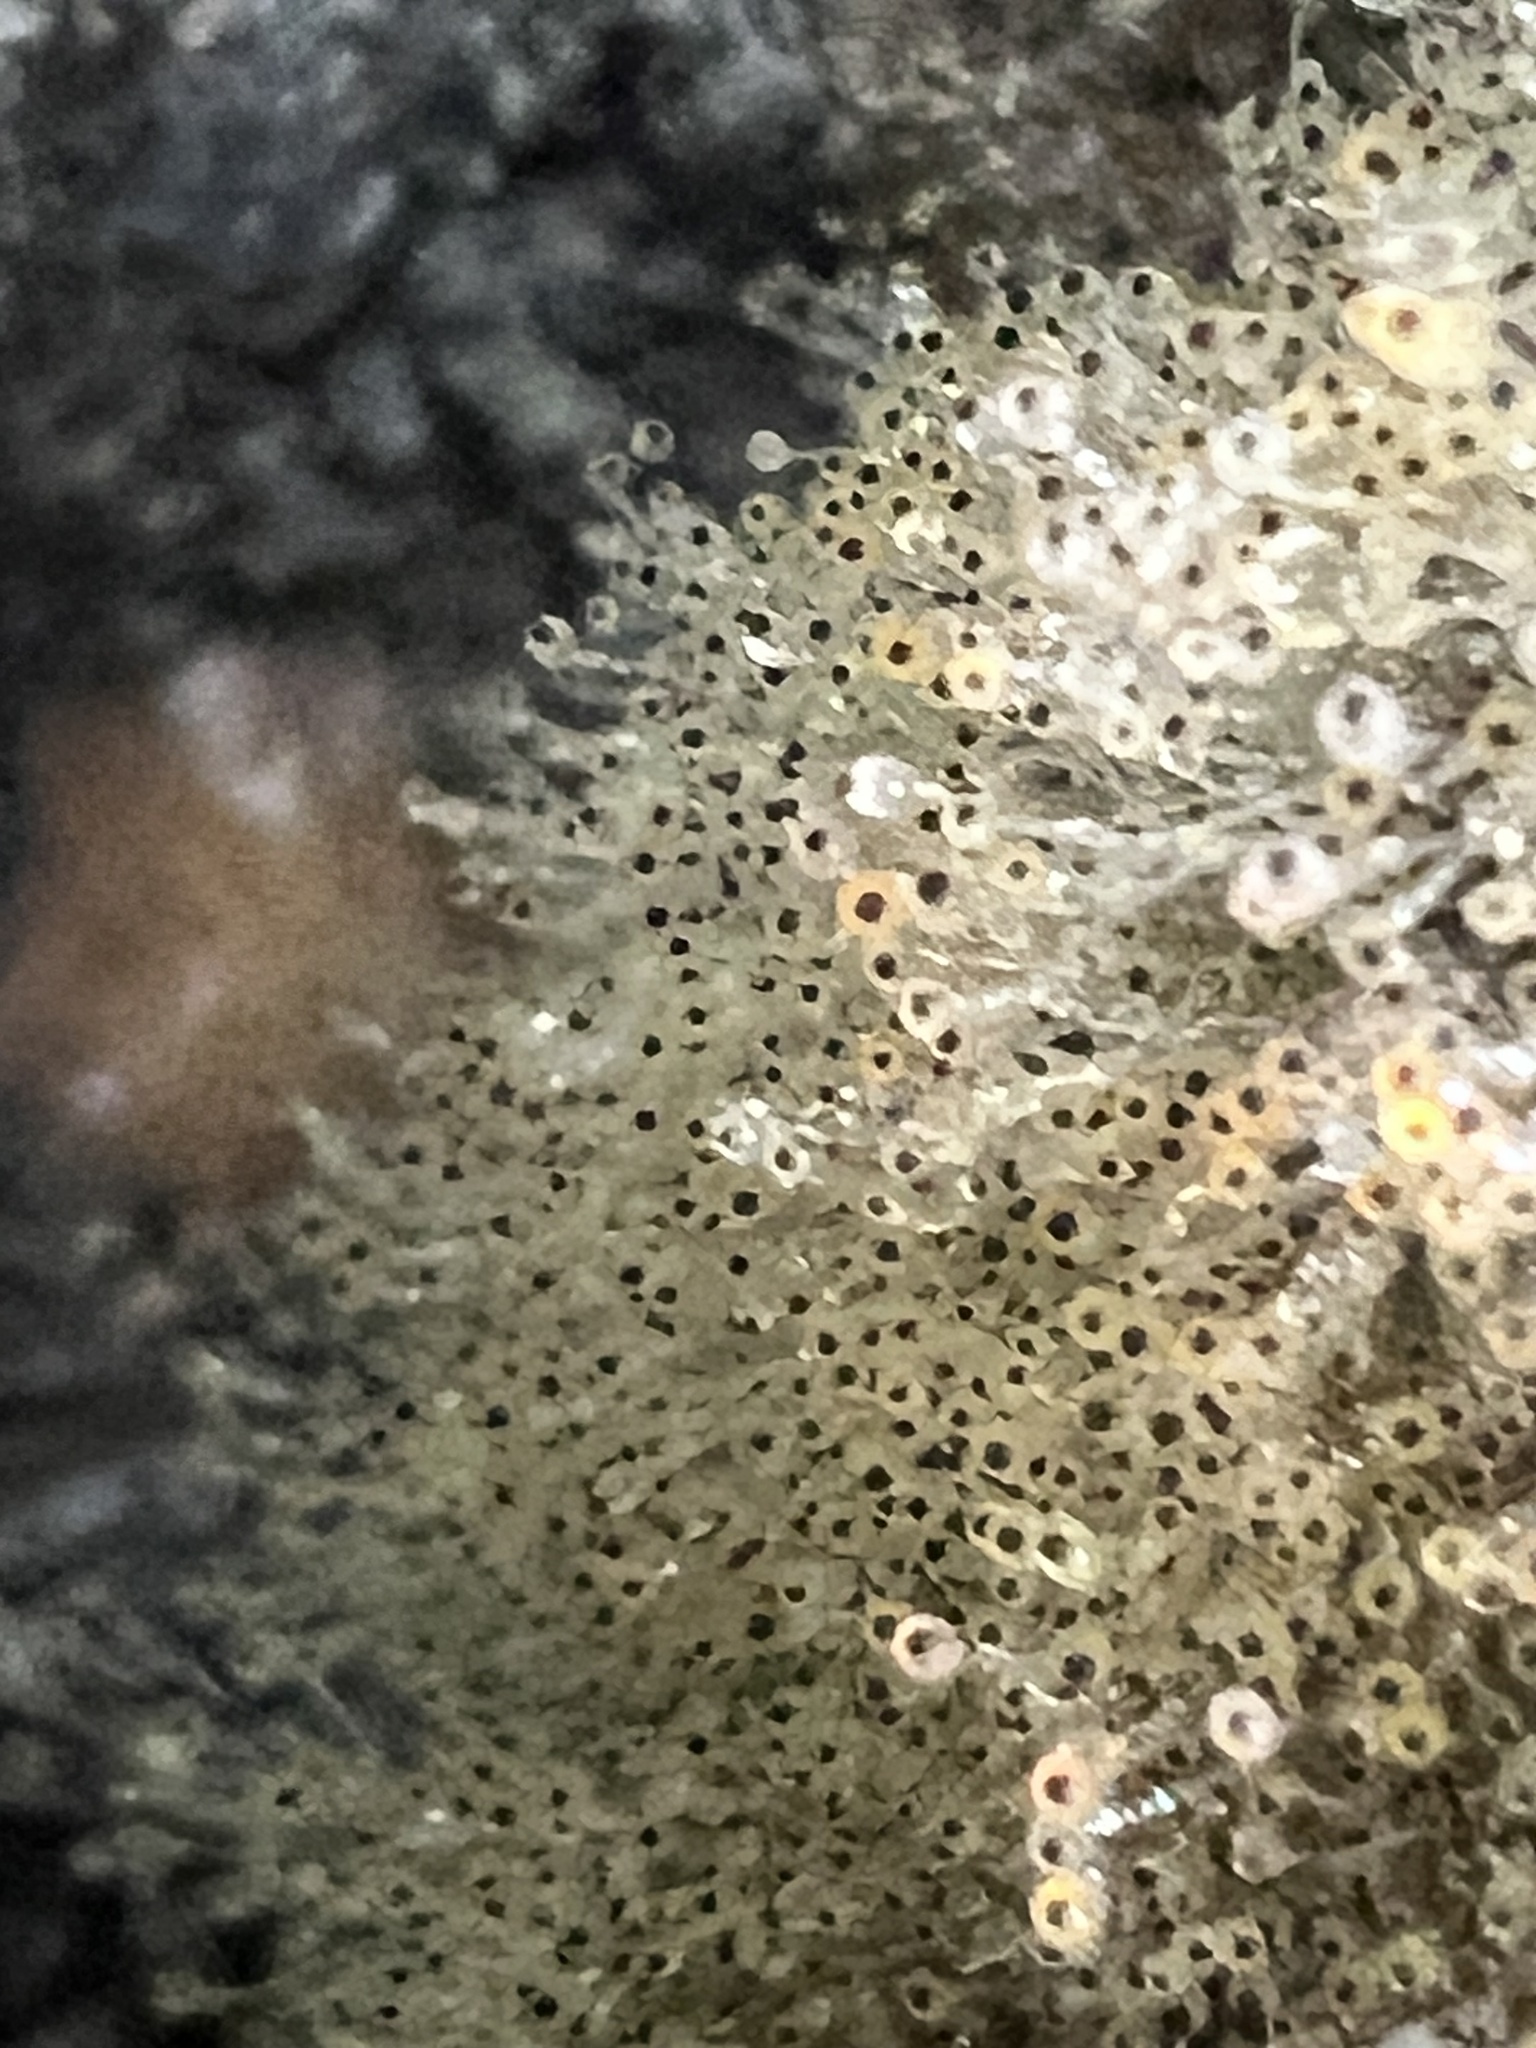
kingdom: Fungi
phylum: Mucoromycota
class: Mucoromycetes
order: Mucorales
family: Pilobolaceae
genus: Pilobolus
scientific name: Pilobolus
